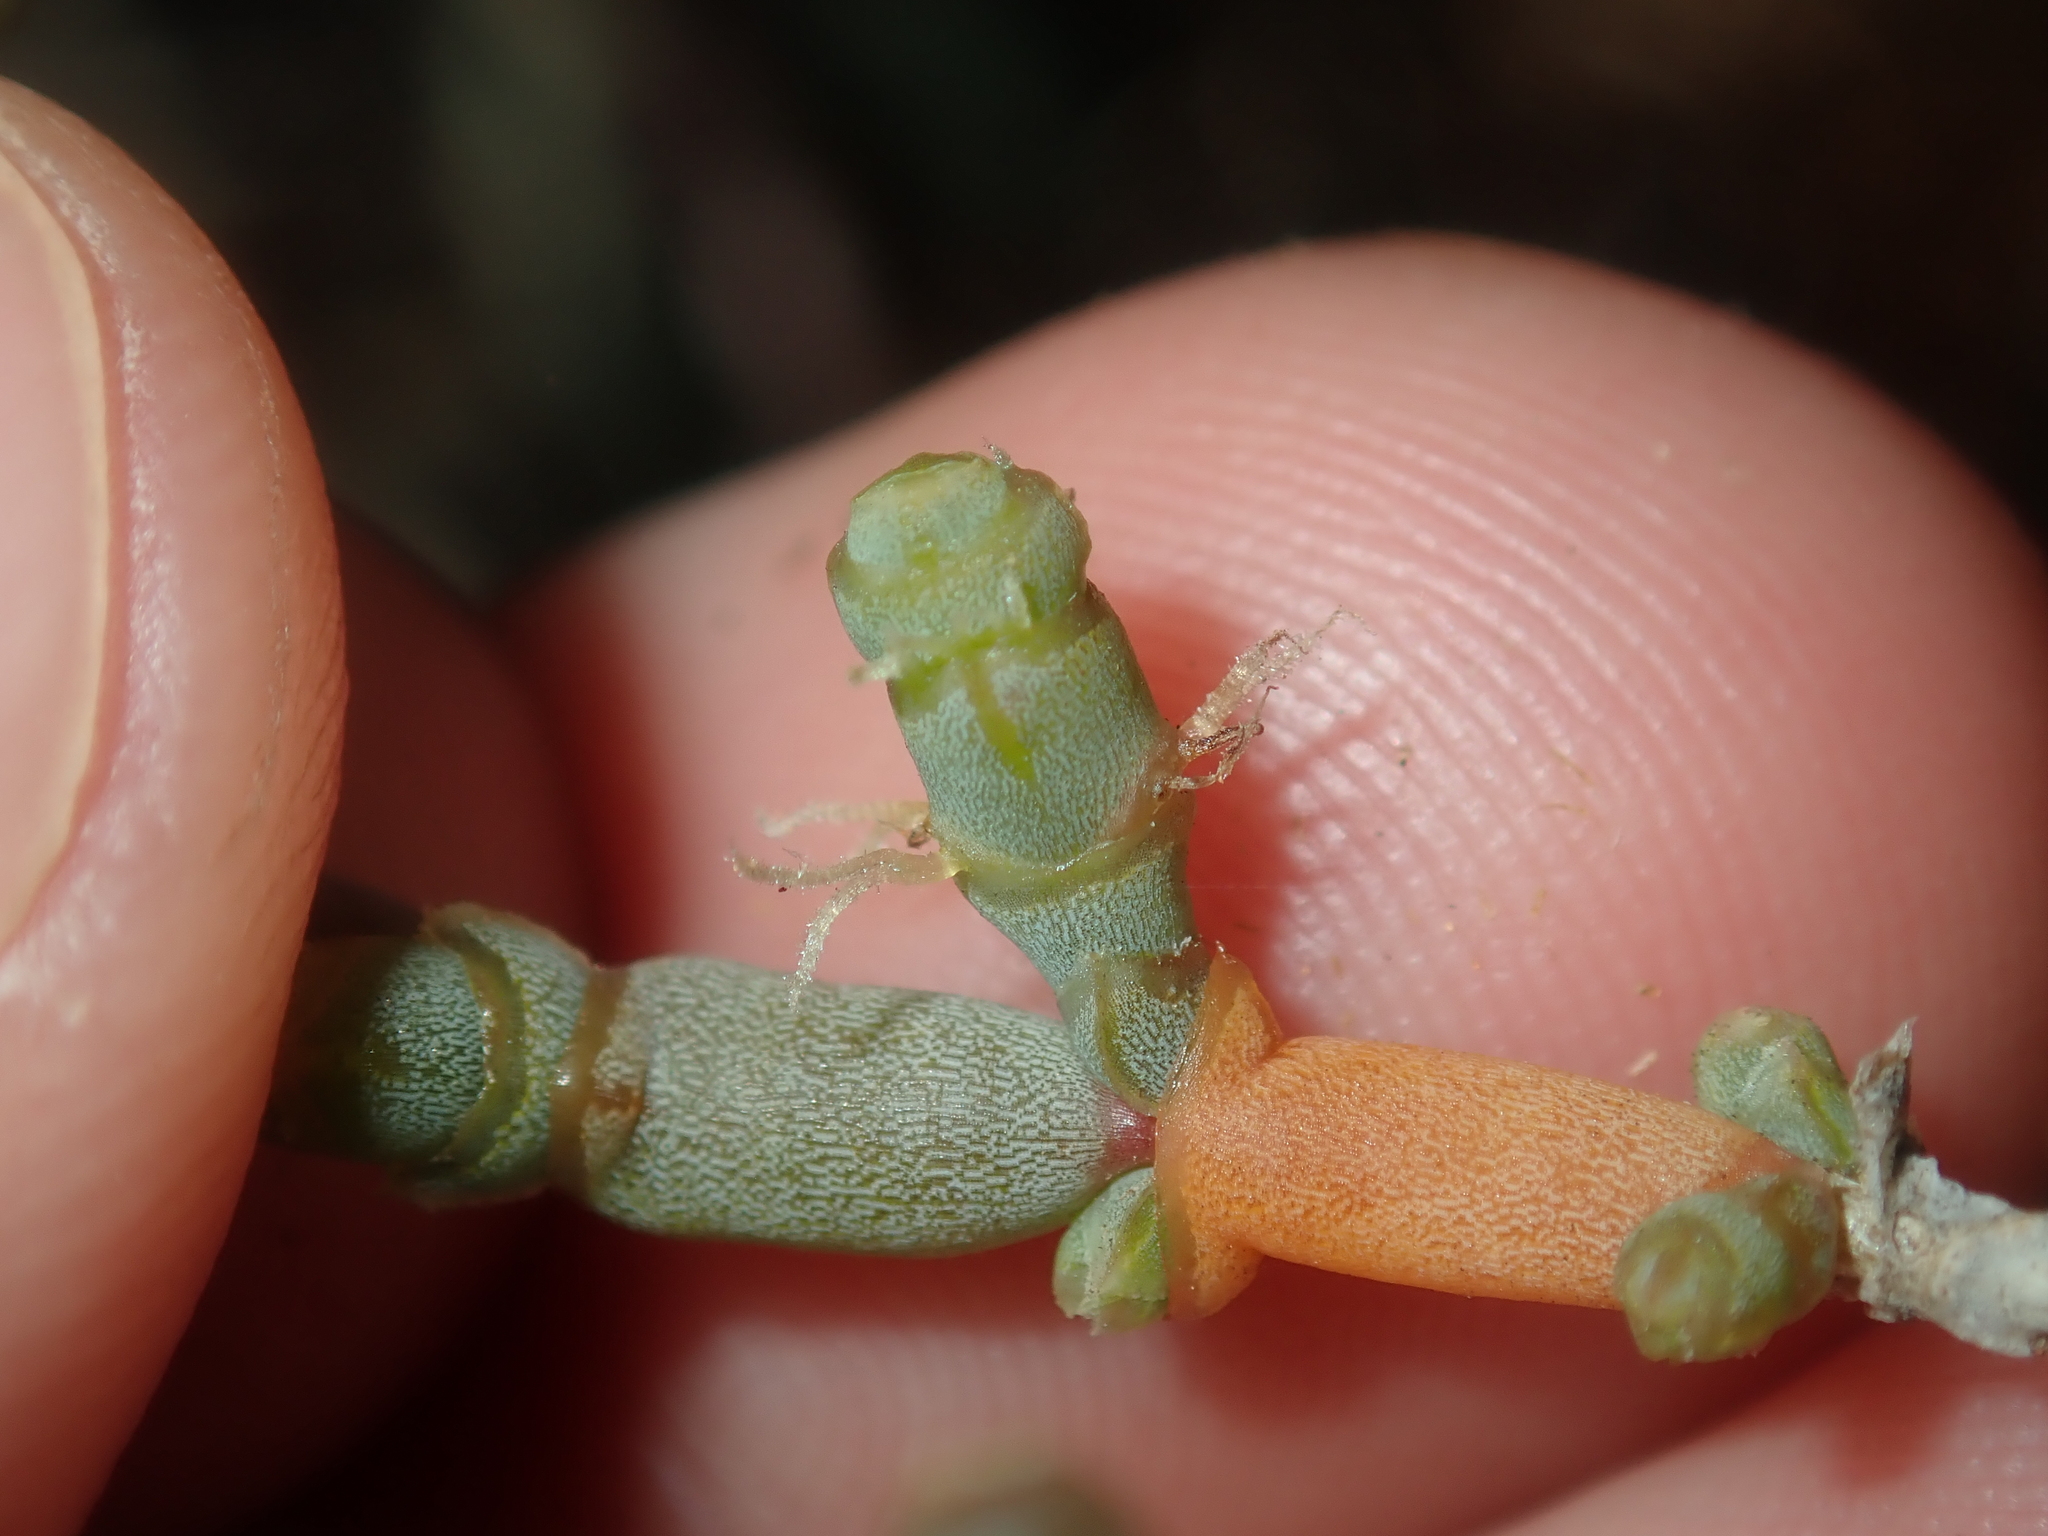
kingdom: Plantae
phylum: Tracheophyta
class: Magnoliopsida
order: Caryophyllales
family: Amaranthaceae
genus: Tecticornia
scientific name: Tecticornia indica
